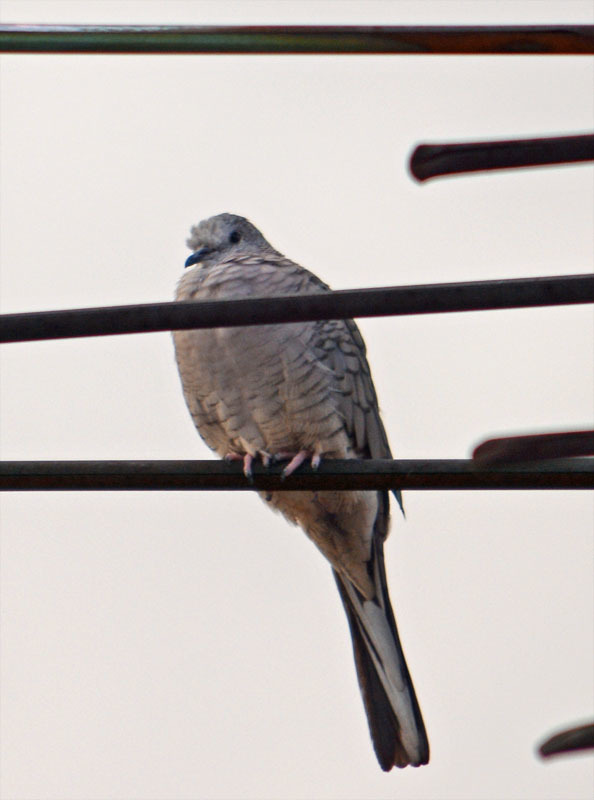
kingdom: Animalia
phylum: Chordata
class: Aves
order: Columbiformes
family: Columbidae
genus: Columbina
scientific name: Columbina inca
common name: Inca dove
